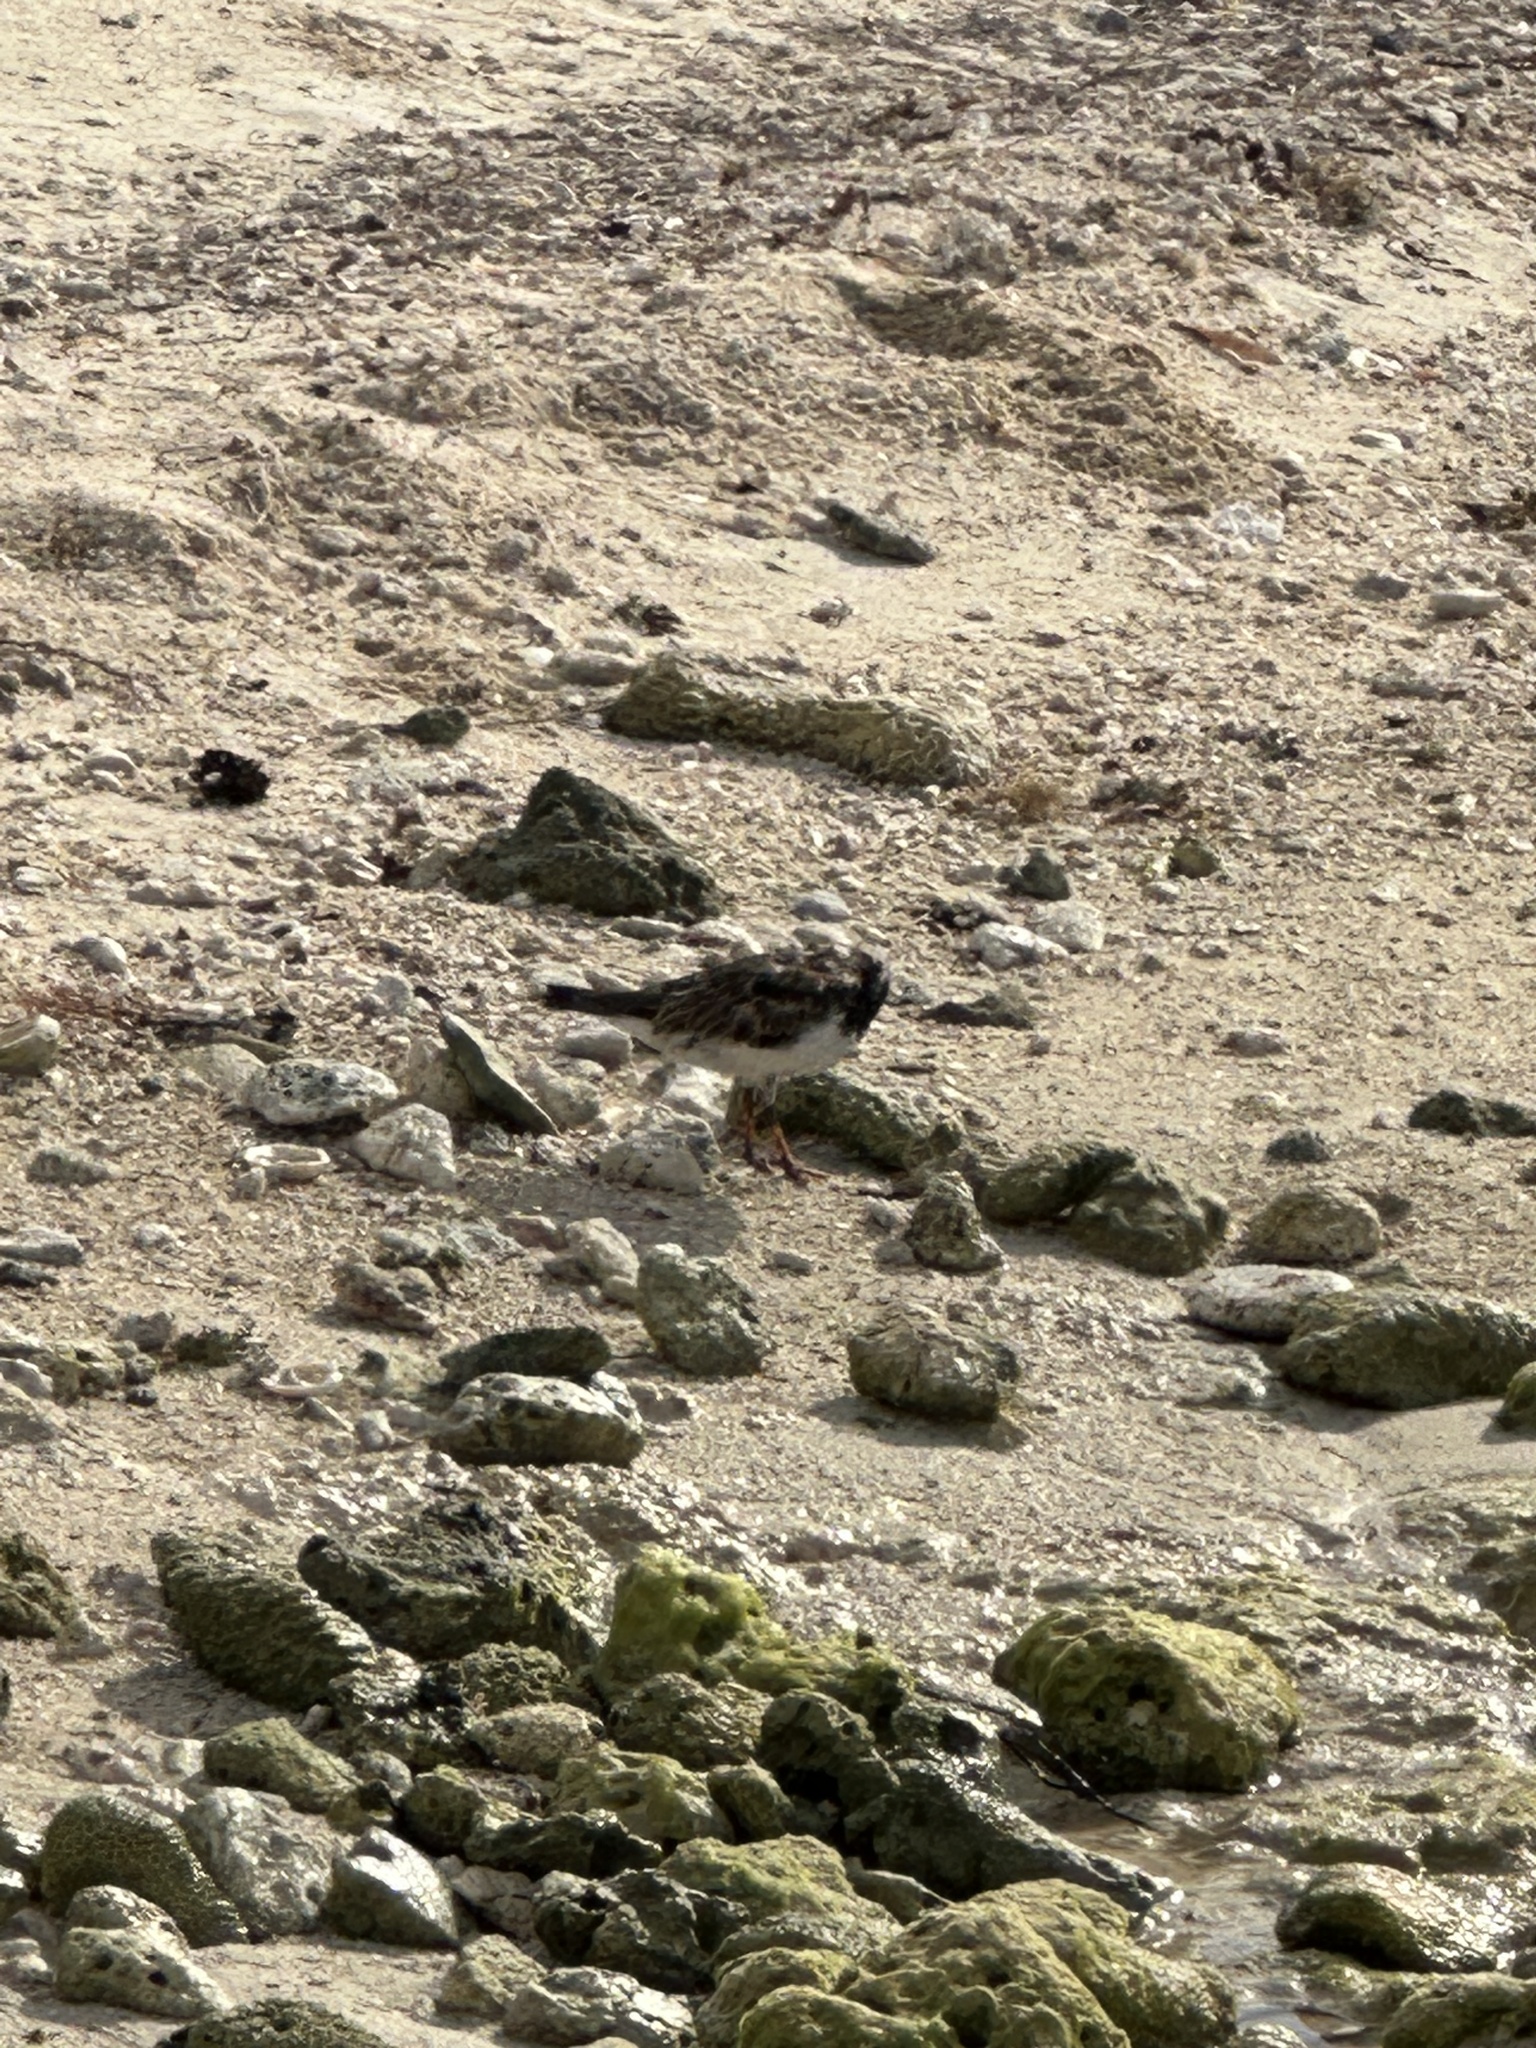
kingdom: Animalia
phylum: Chordata
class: Aves
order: Charadriiformes
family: Scolopacidae
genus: Arenaria
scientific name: Arenaria interpres
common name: Ruddy turnstone
